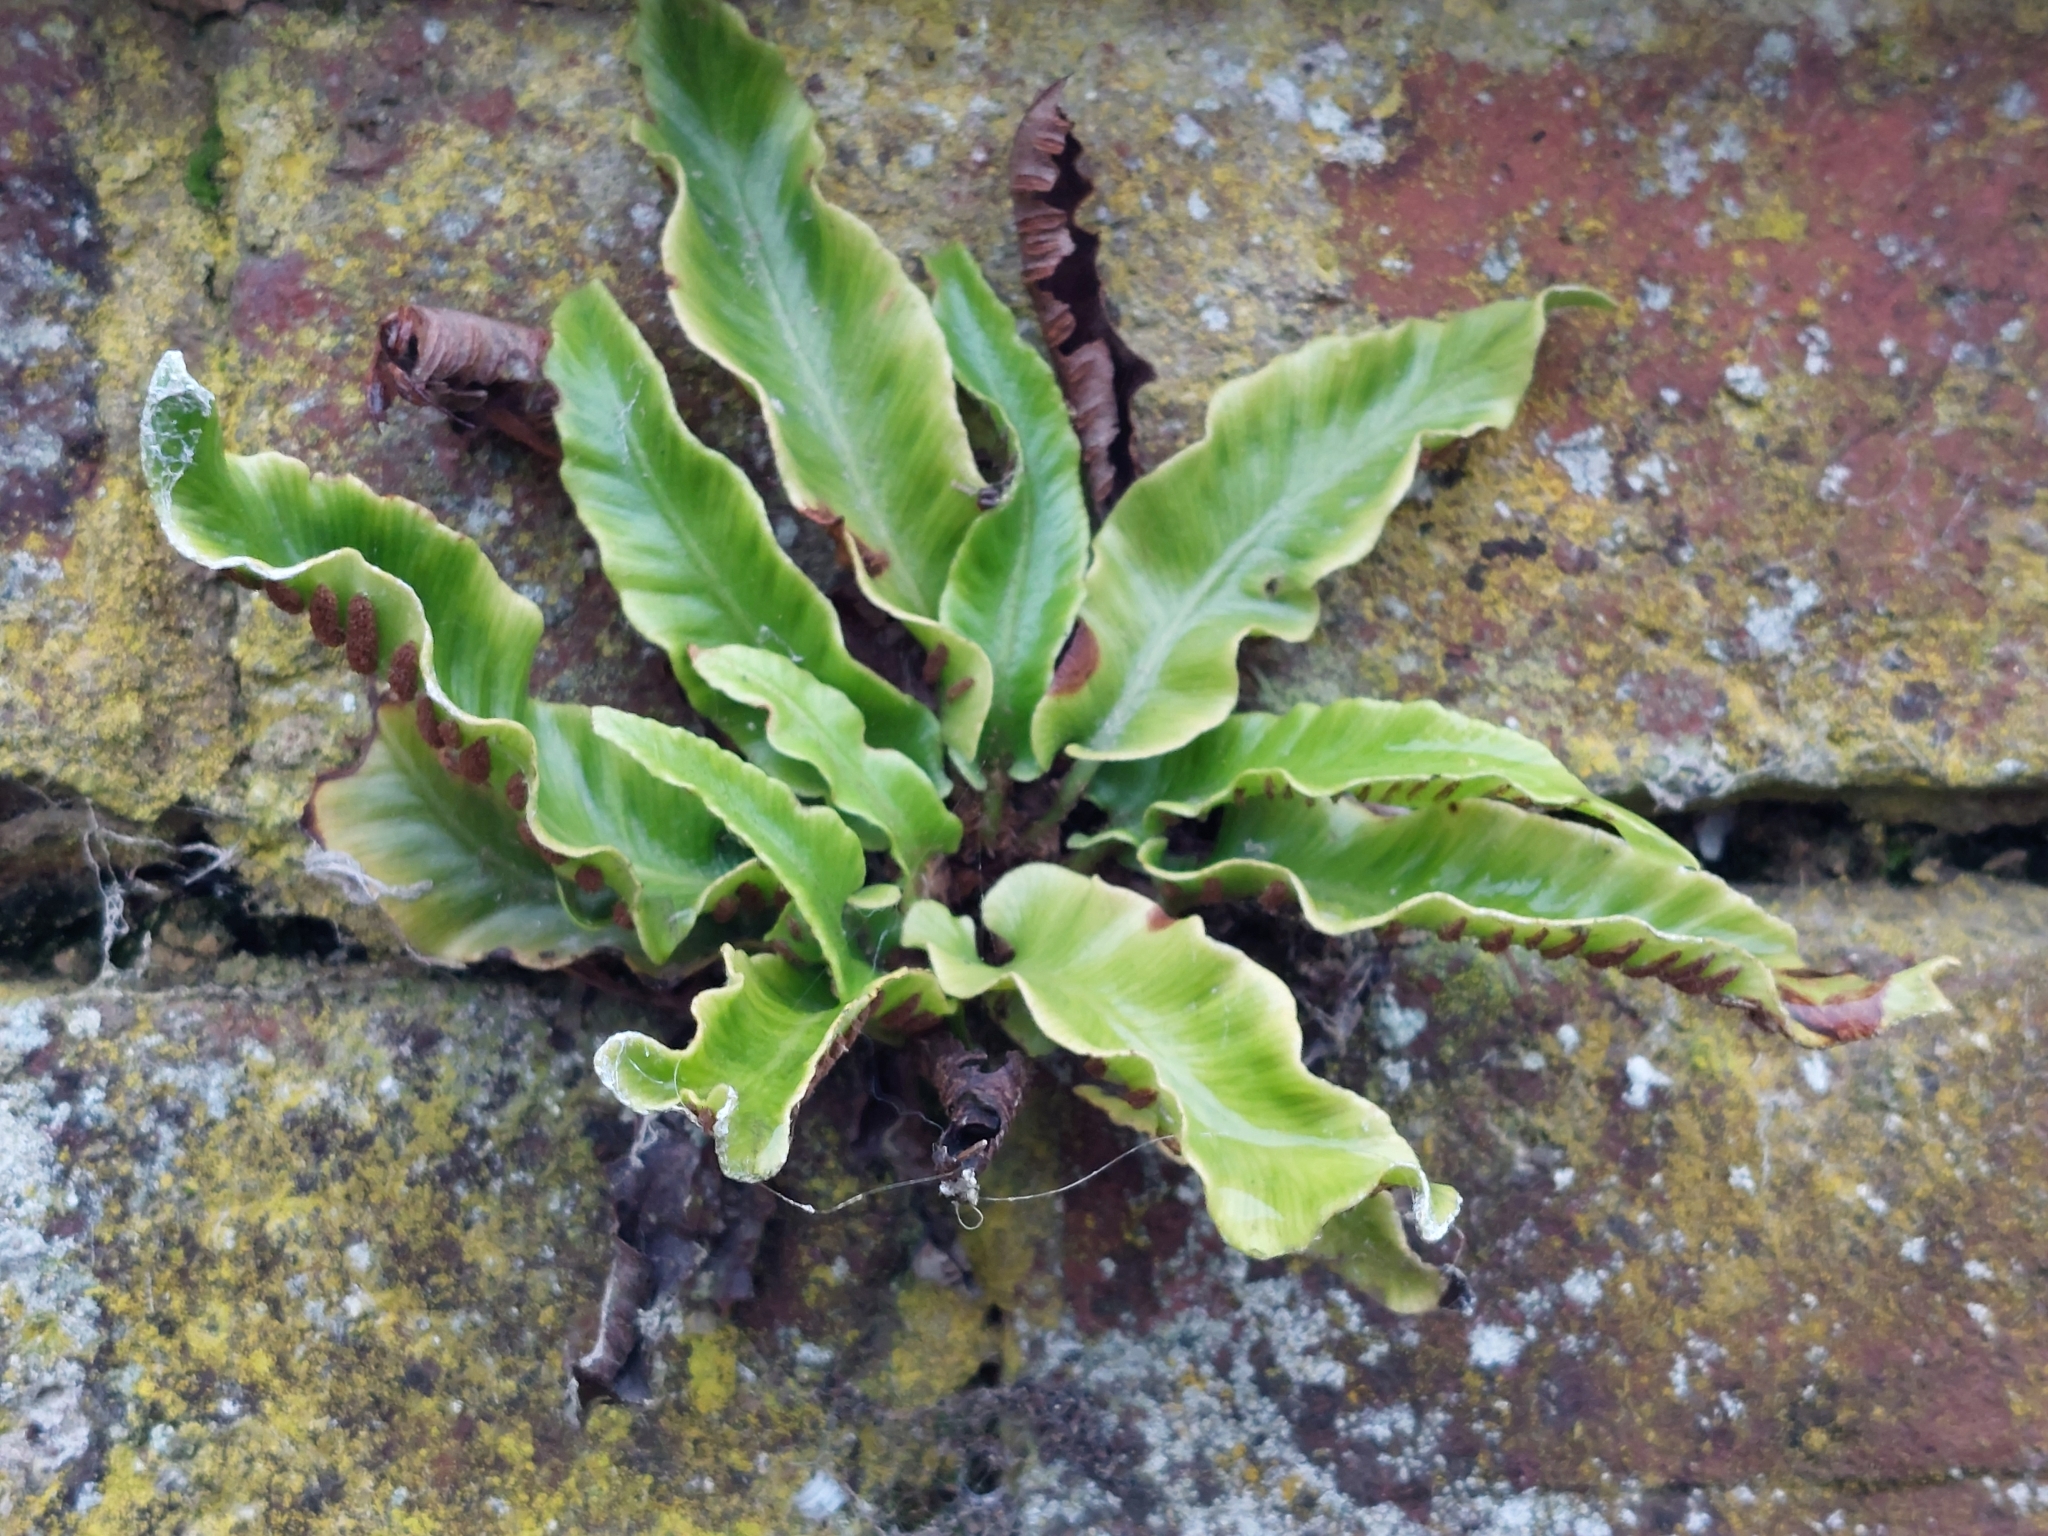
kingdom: Plantae
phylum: Tracheophyta
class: Polypodiopsida
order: Polypodiales
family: Aspleniaceae
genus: Asplenium
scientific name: Asplenium scolopendrium
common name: Hart's-tongue fern
